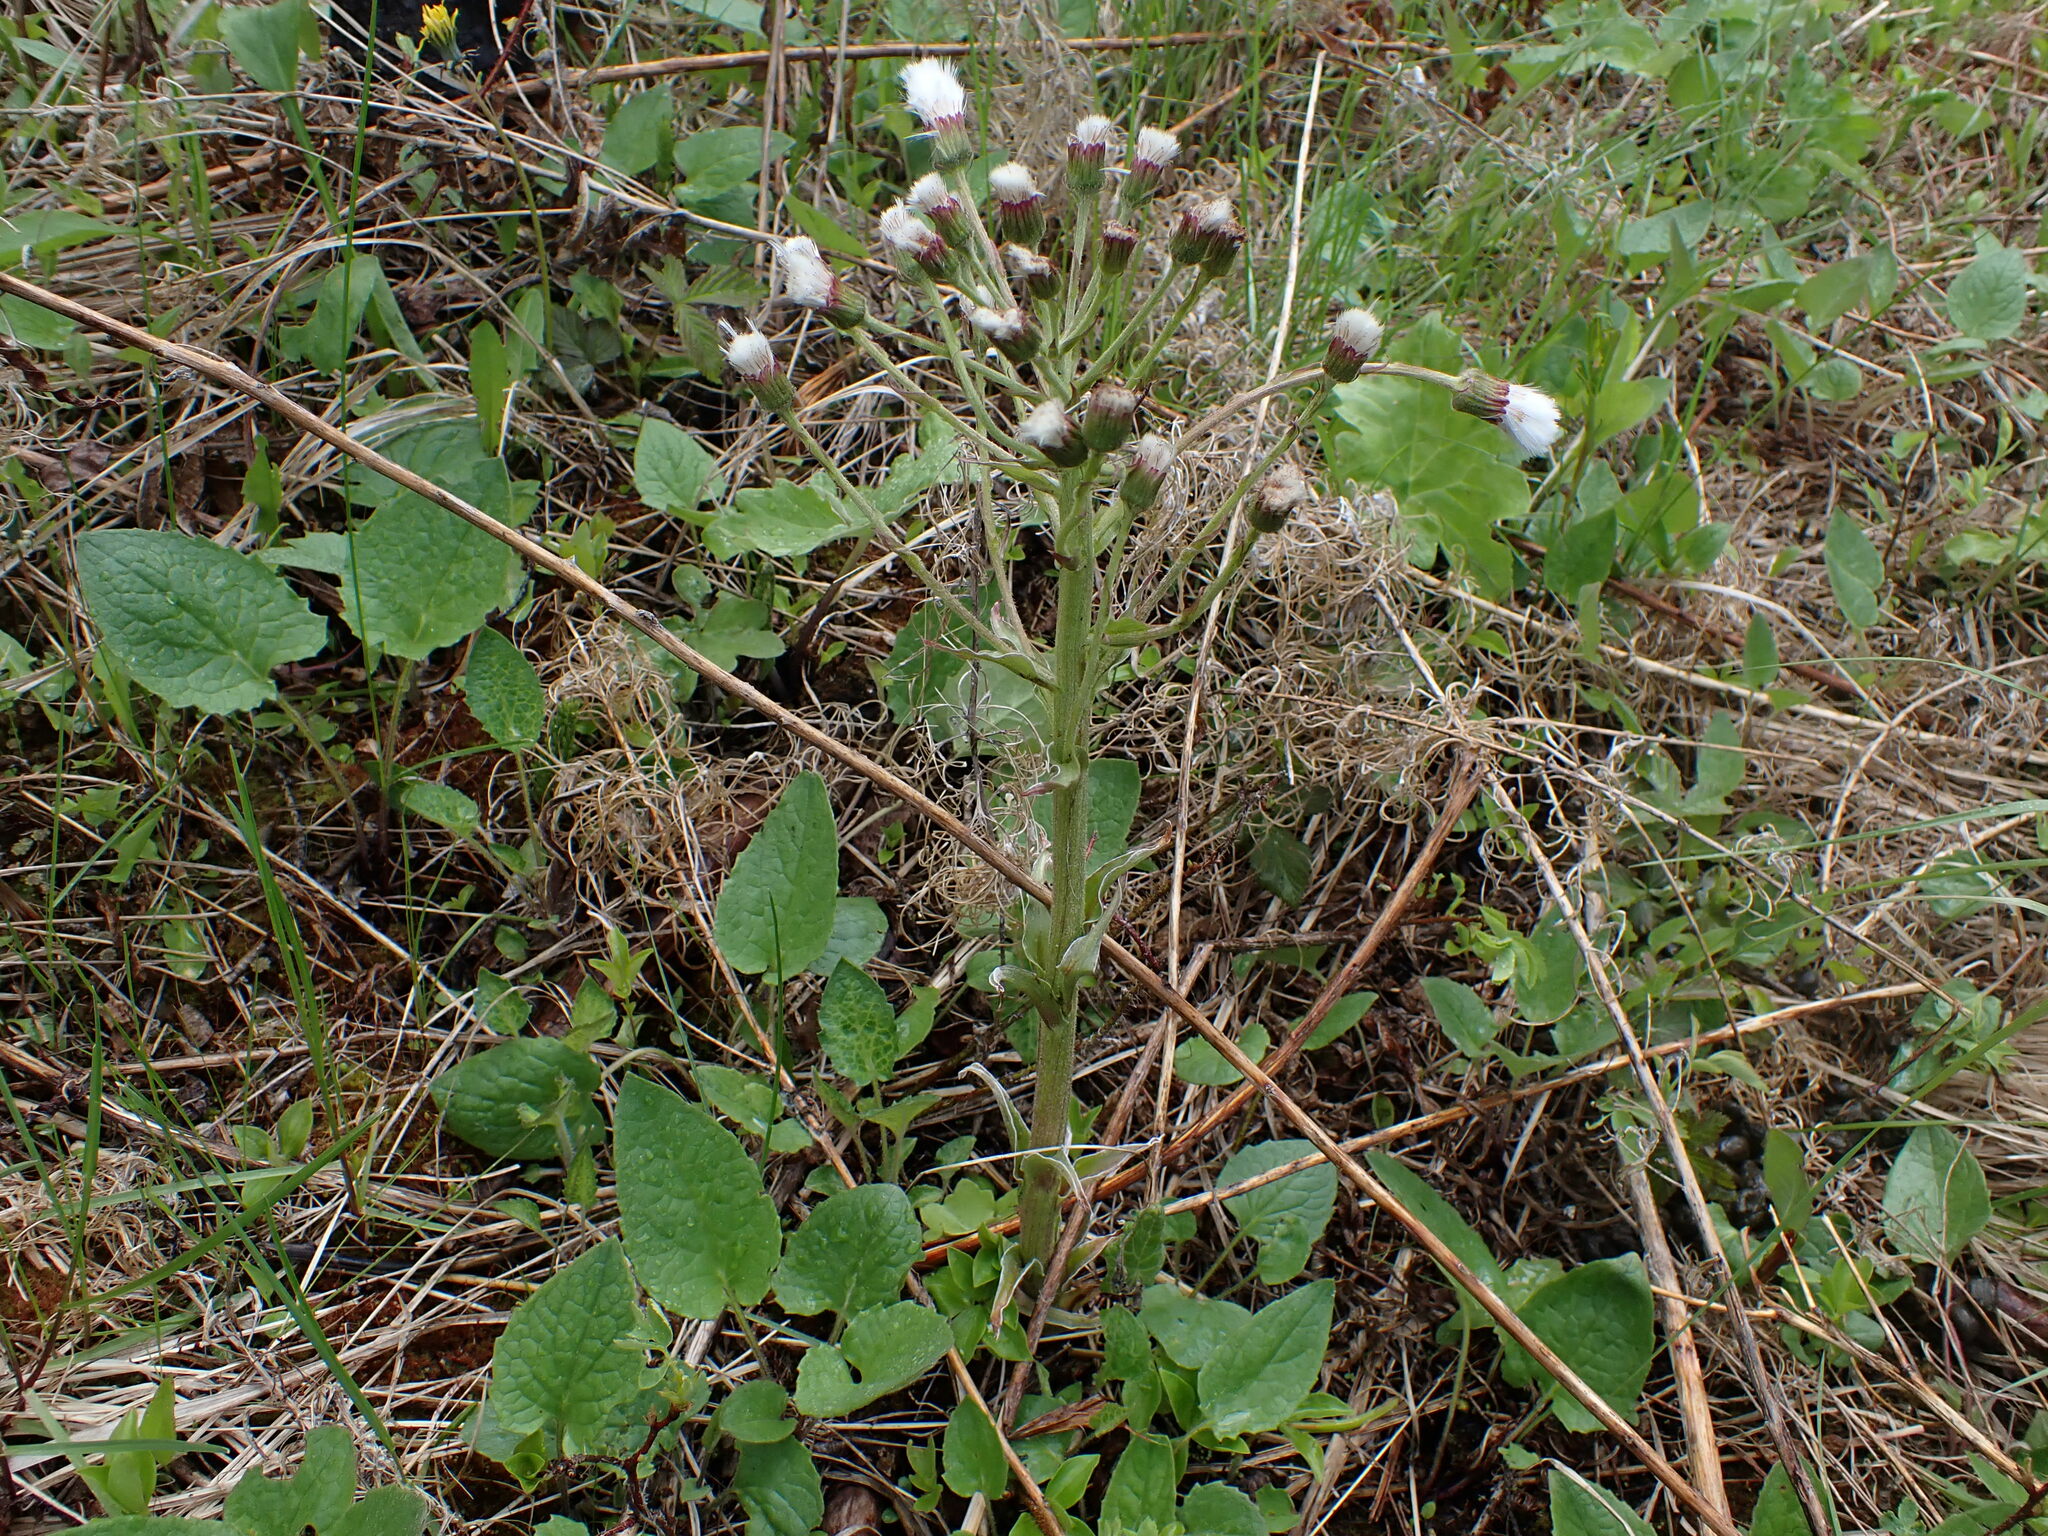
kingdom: Plantae
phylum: Tracheophyta
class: Magnoliopsida
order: Asterales
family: Asteraceae
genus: Petasites
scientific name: Petasites frigidus
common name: Arctic butterbur
